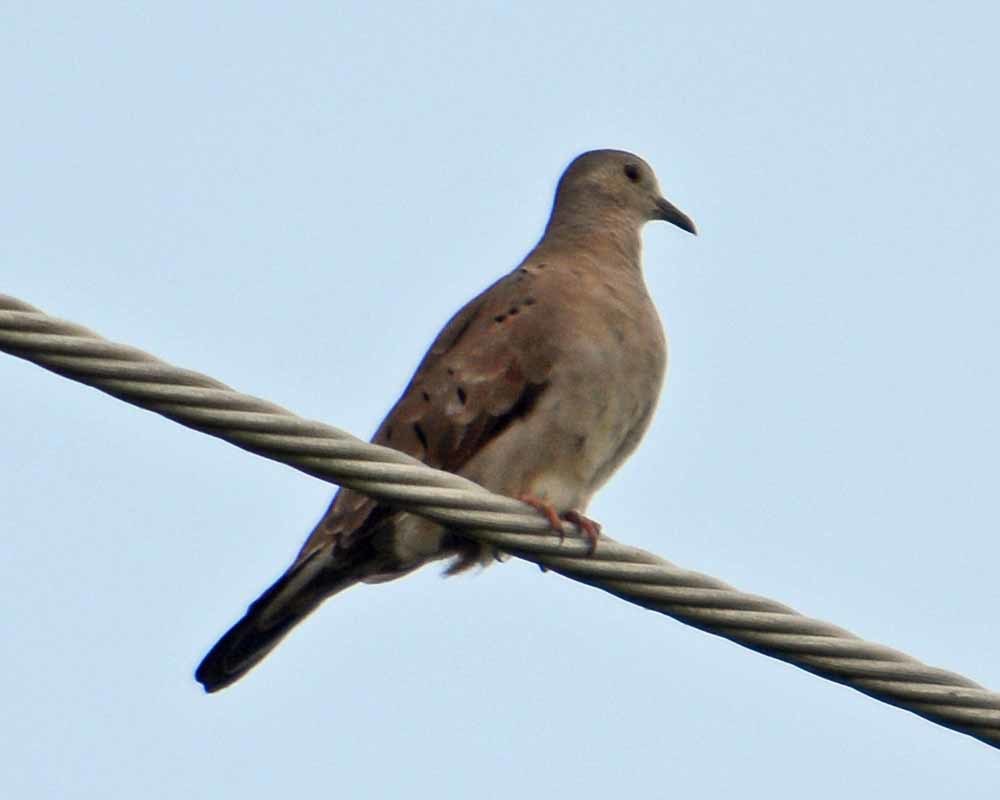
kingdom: Animalia
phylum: Chordata
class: Aves
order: Columbiformes
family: Columbidae
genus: Columbina
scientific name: Columbina talpacoti
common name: Ruddy ground dove
